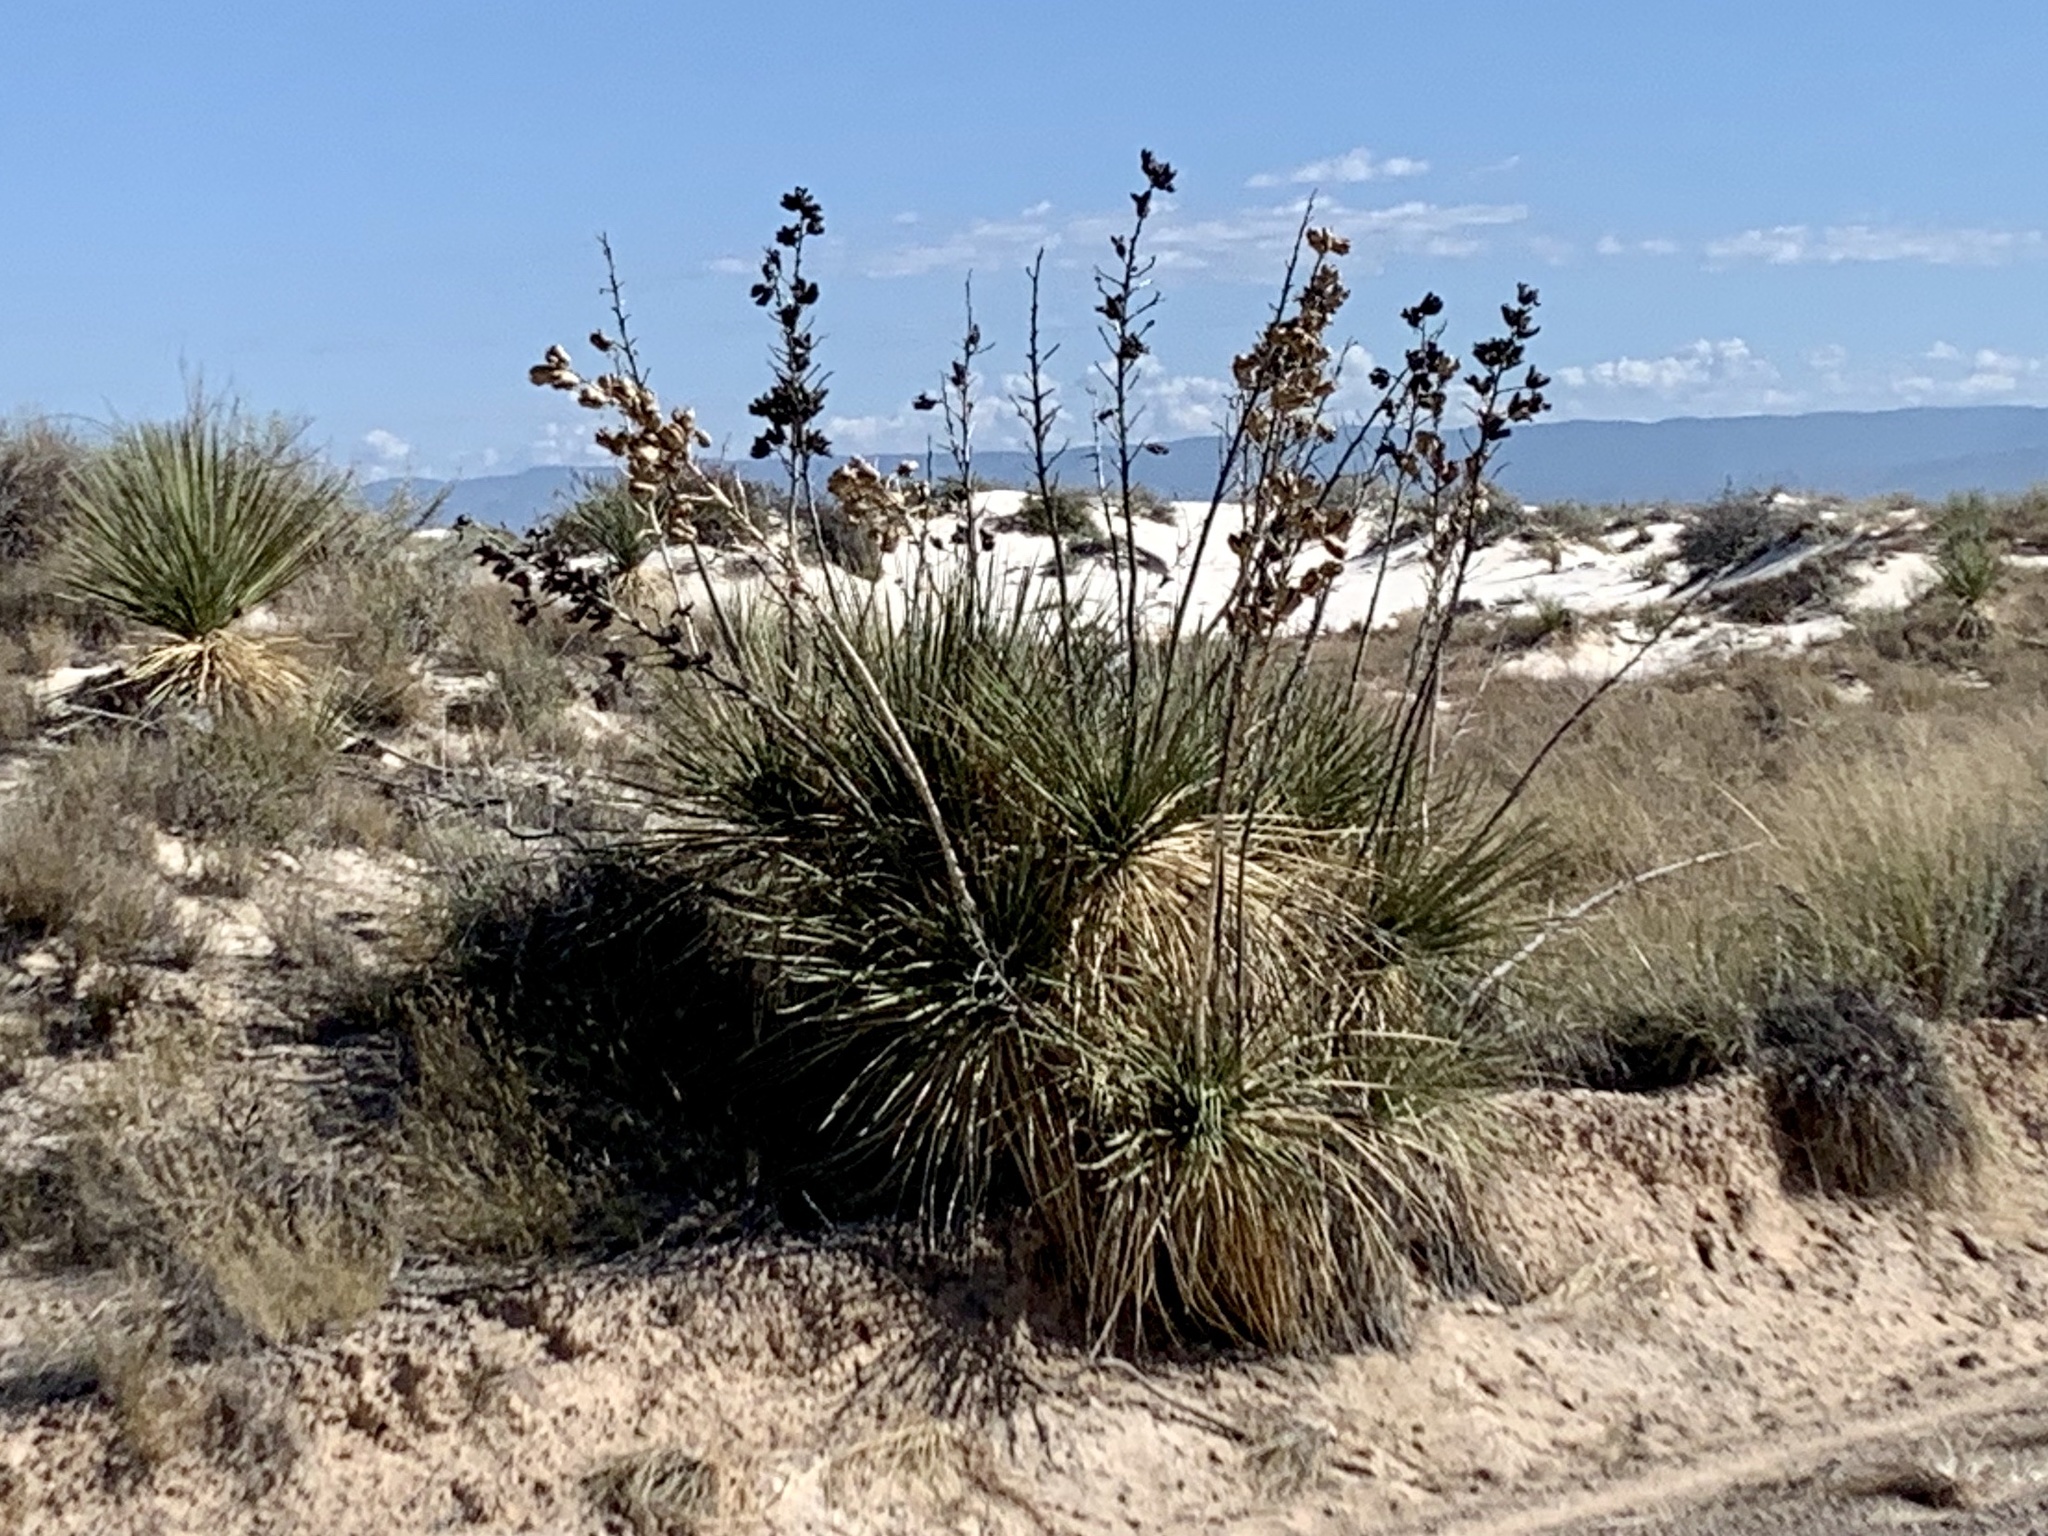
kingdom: Plantae
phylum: Tracheophyta
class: Liliopsida
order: Asparagales
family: Asparagaceae
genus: Yucca
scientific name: Yucca elata
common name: Palmella
